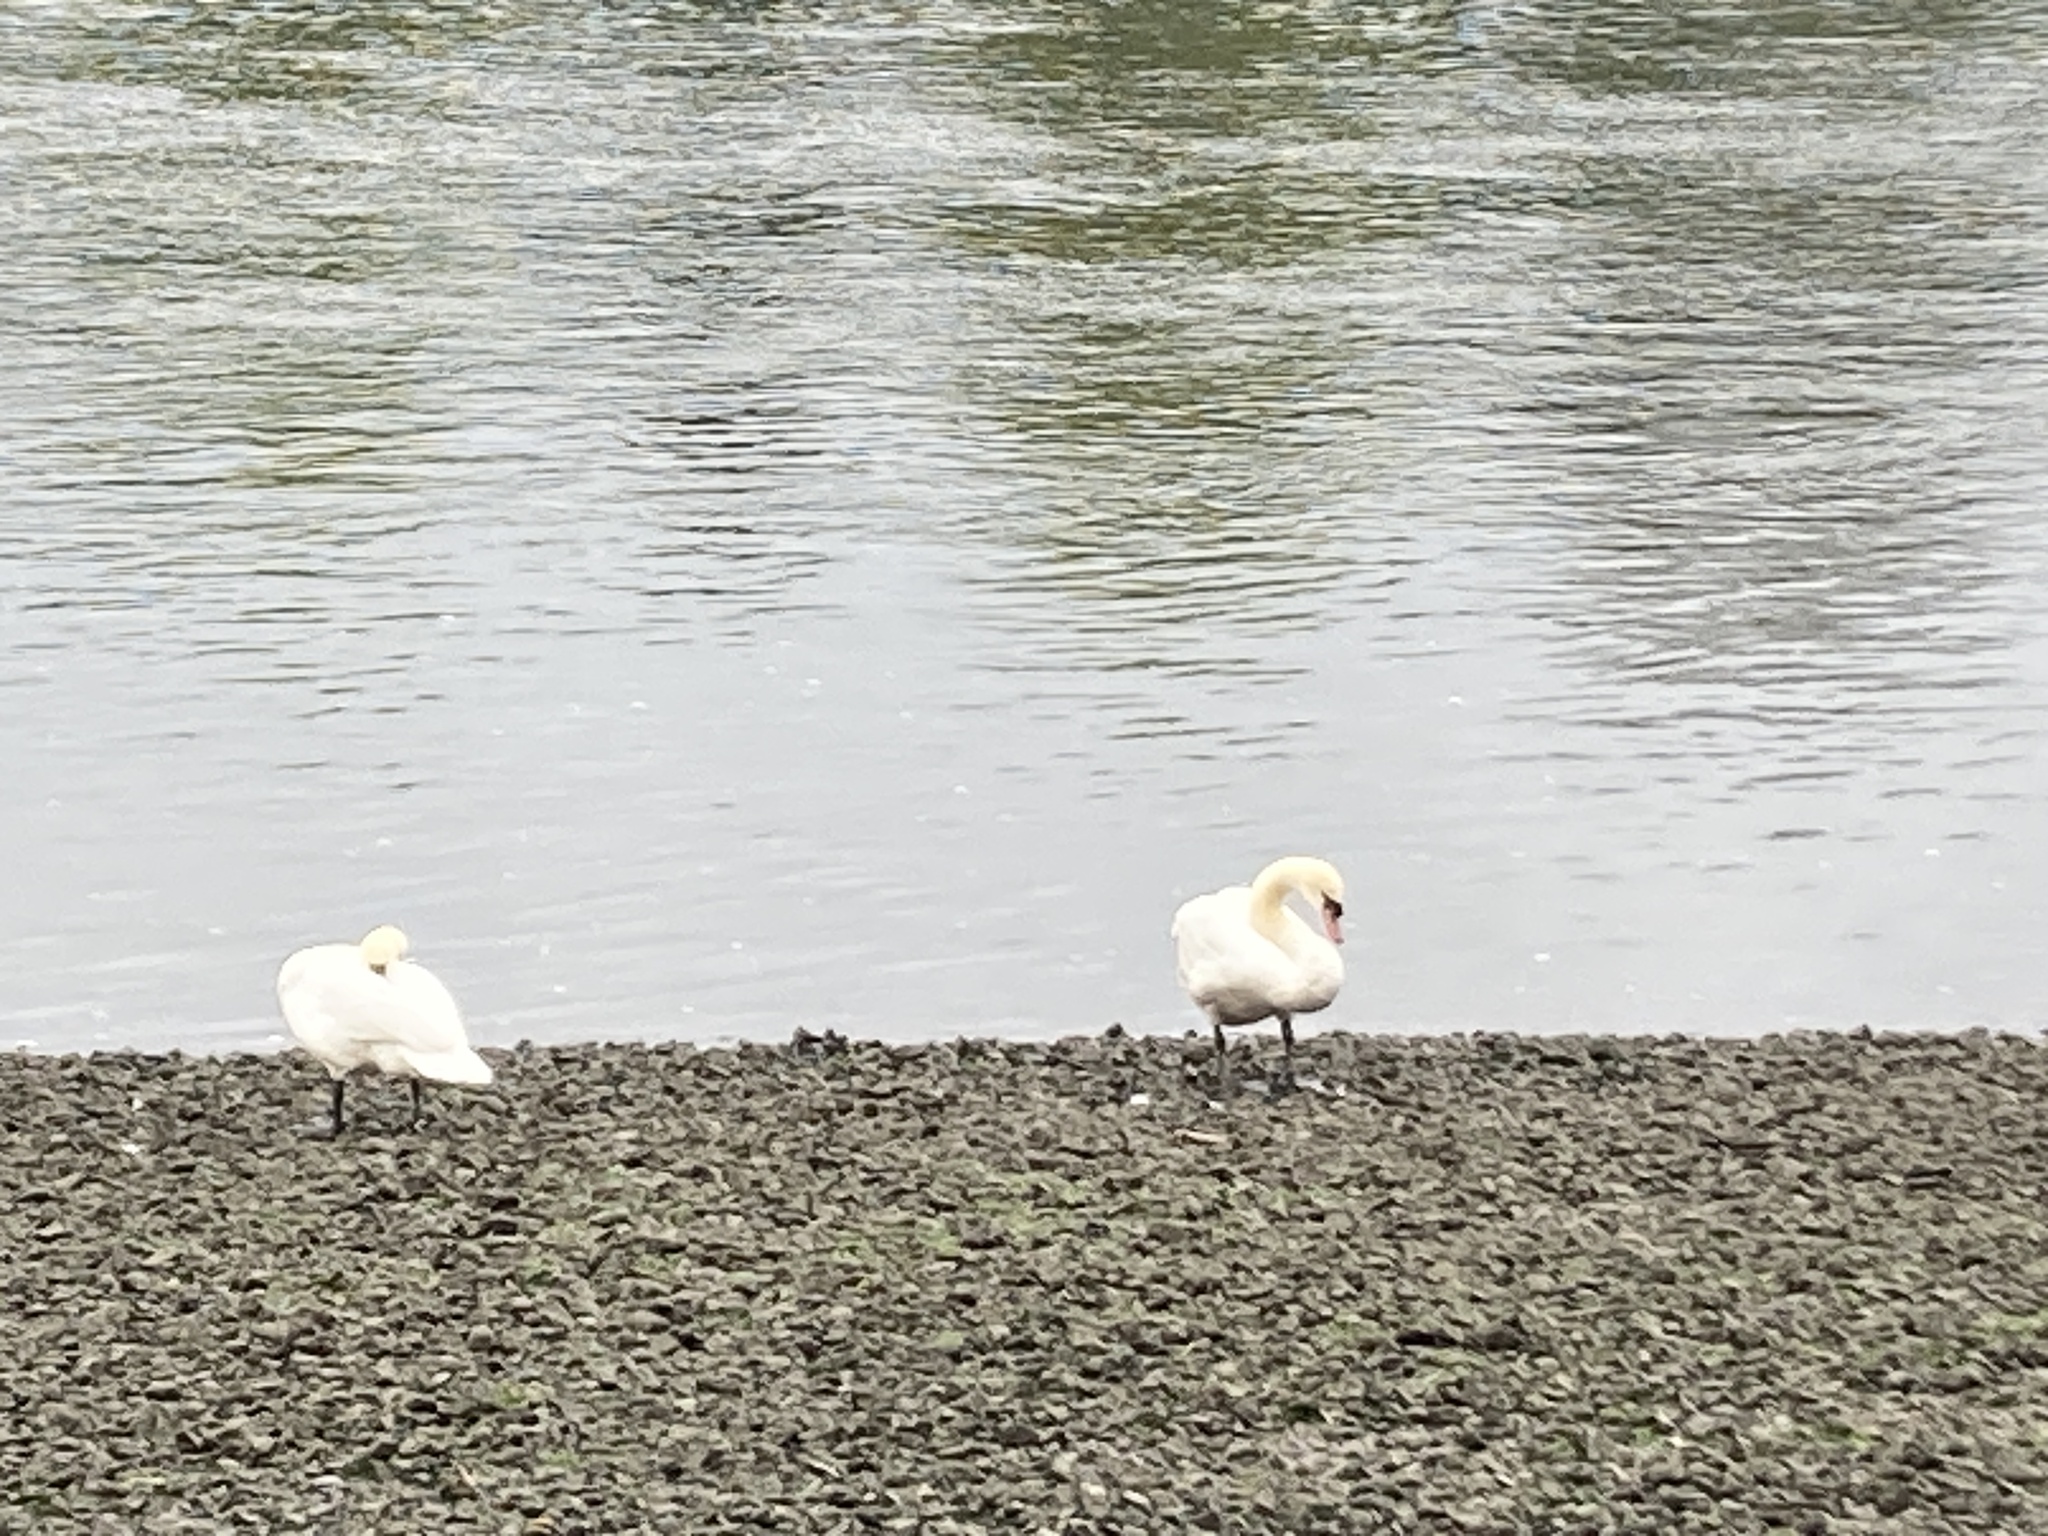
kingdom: Animalia
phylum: Chordata
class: Aves
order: Anseriformes
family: Anatidae
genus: Cygnus
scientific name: Cygnus olor
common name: Mute swan
